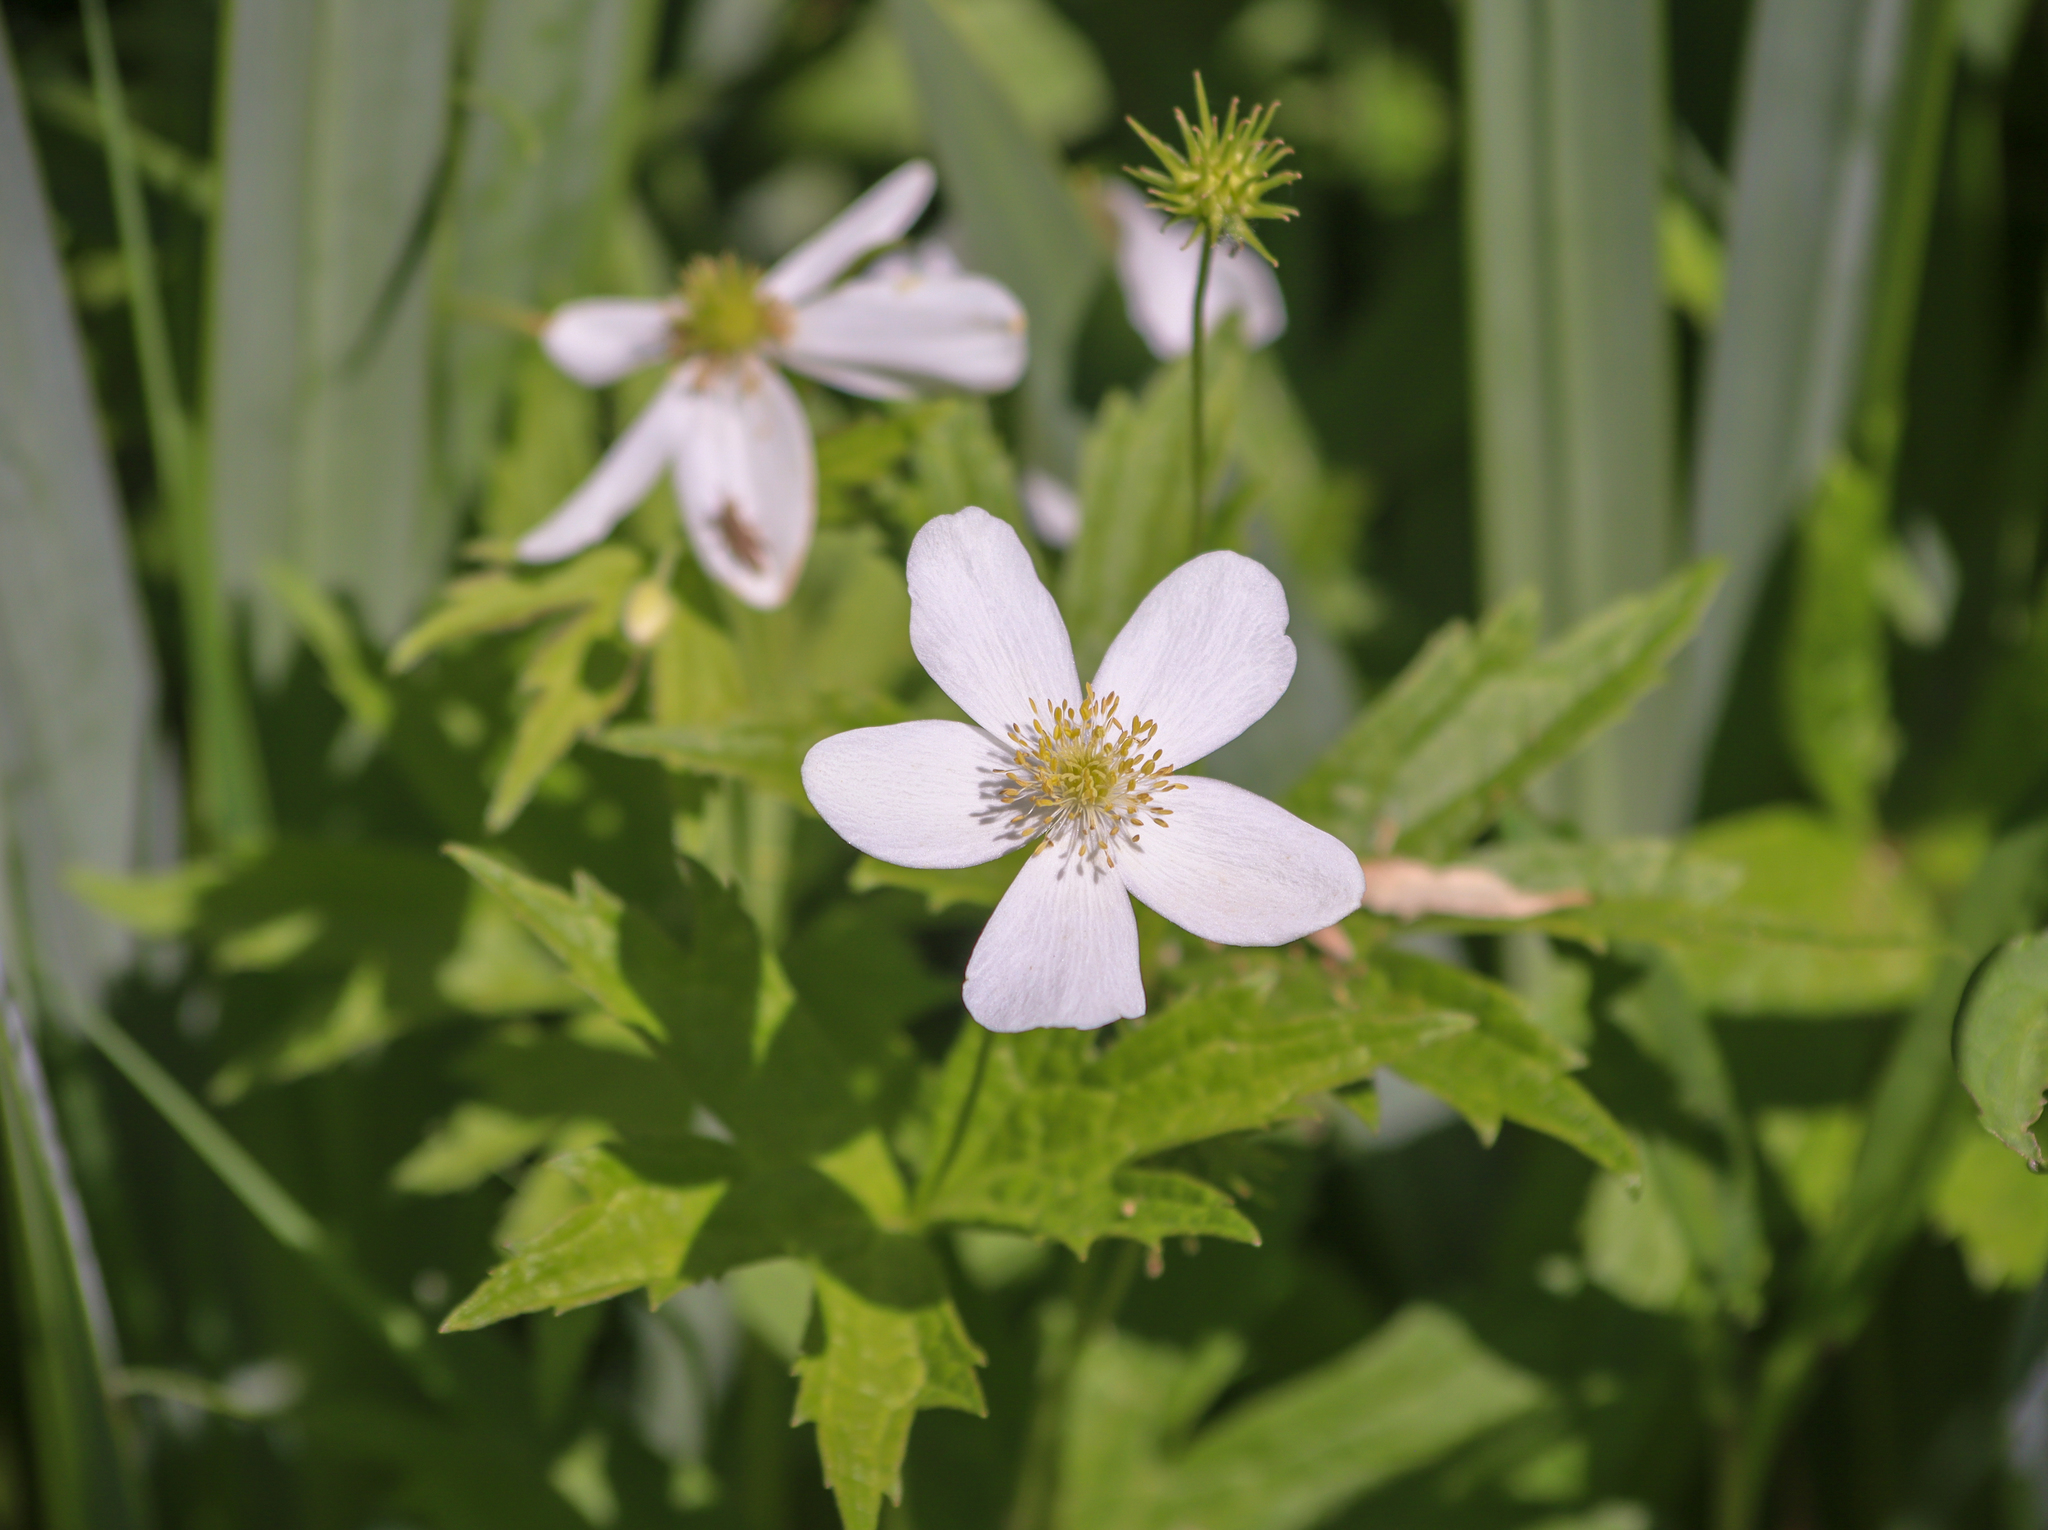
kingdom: Plantae
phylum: Tracheophyta
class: Magnoliopsida
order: Ranunculales
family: Ranunculaceae
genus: Anemonastrum
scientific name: Anemonastrum canadense
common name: Canada anemone
